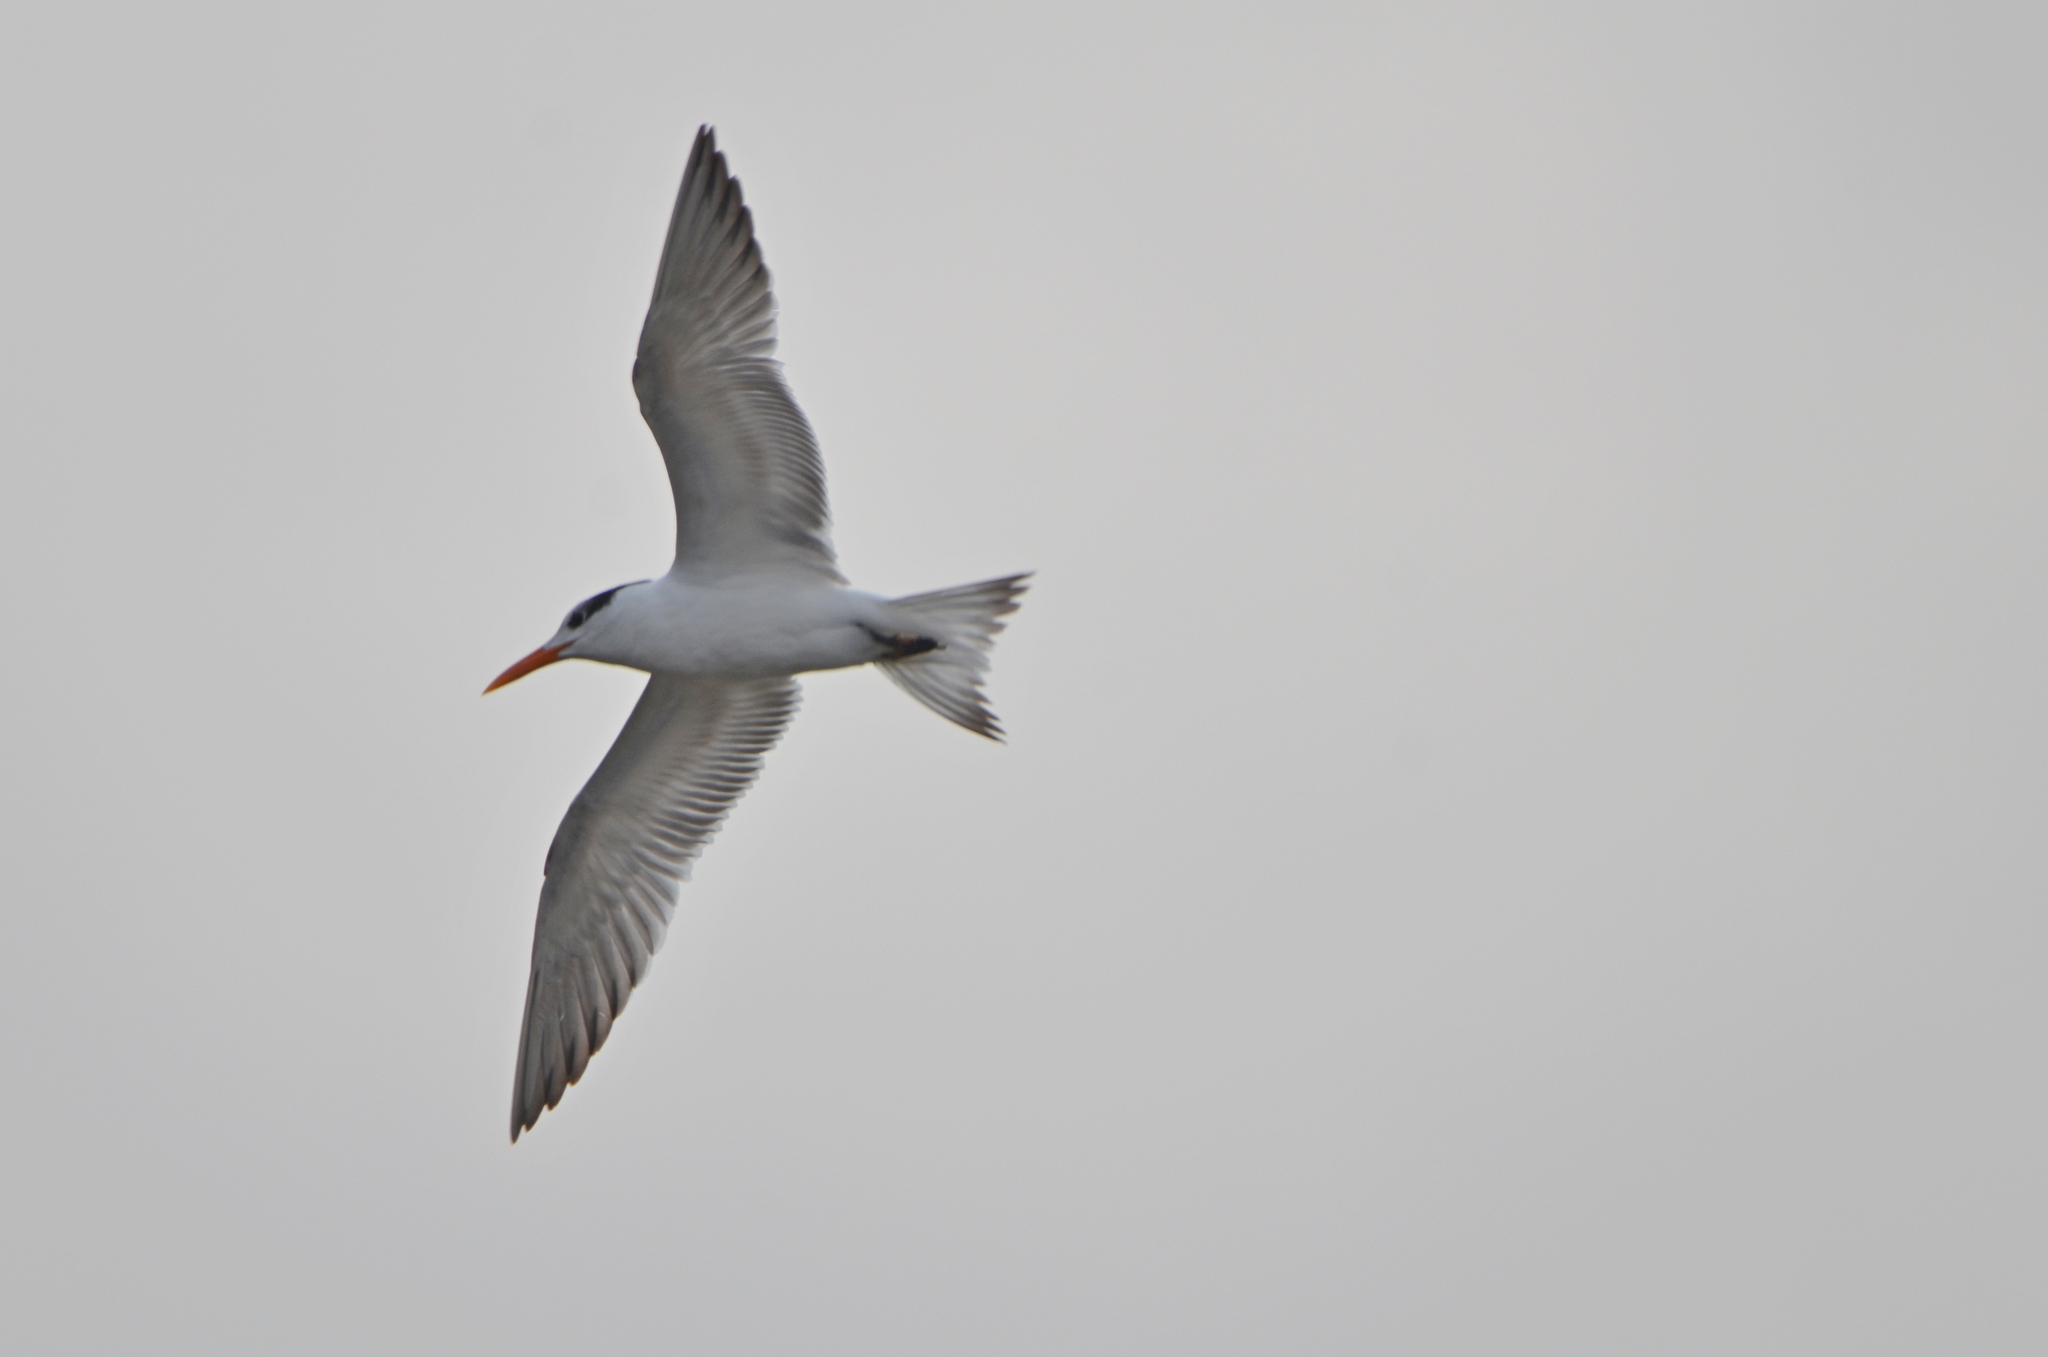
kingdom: Animalia
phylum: Chordata
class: Aves
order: Charadriiformes
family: Laridae
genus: Thalasseus
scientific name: Thalasseus maximus
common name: Royal tern
